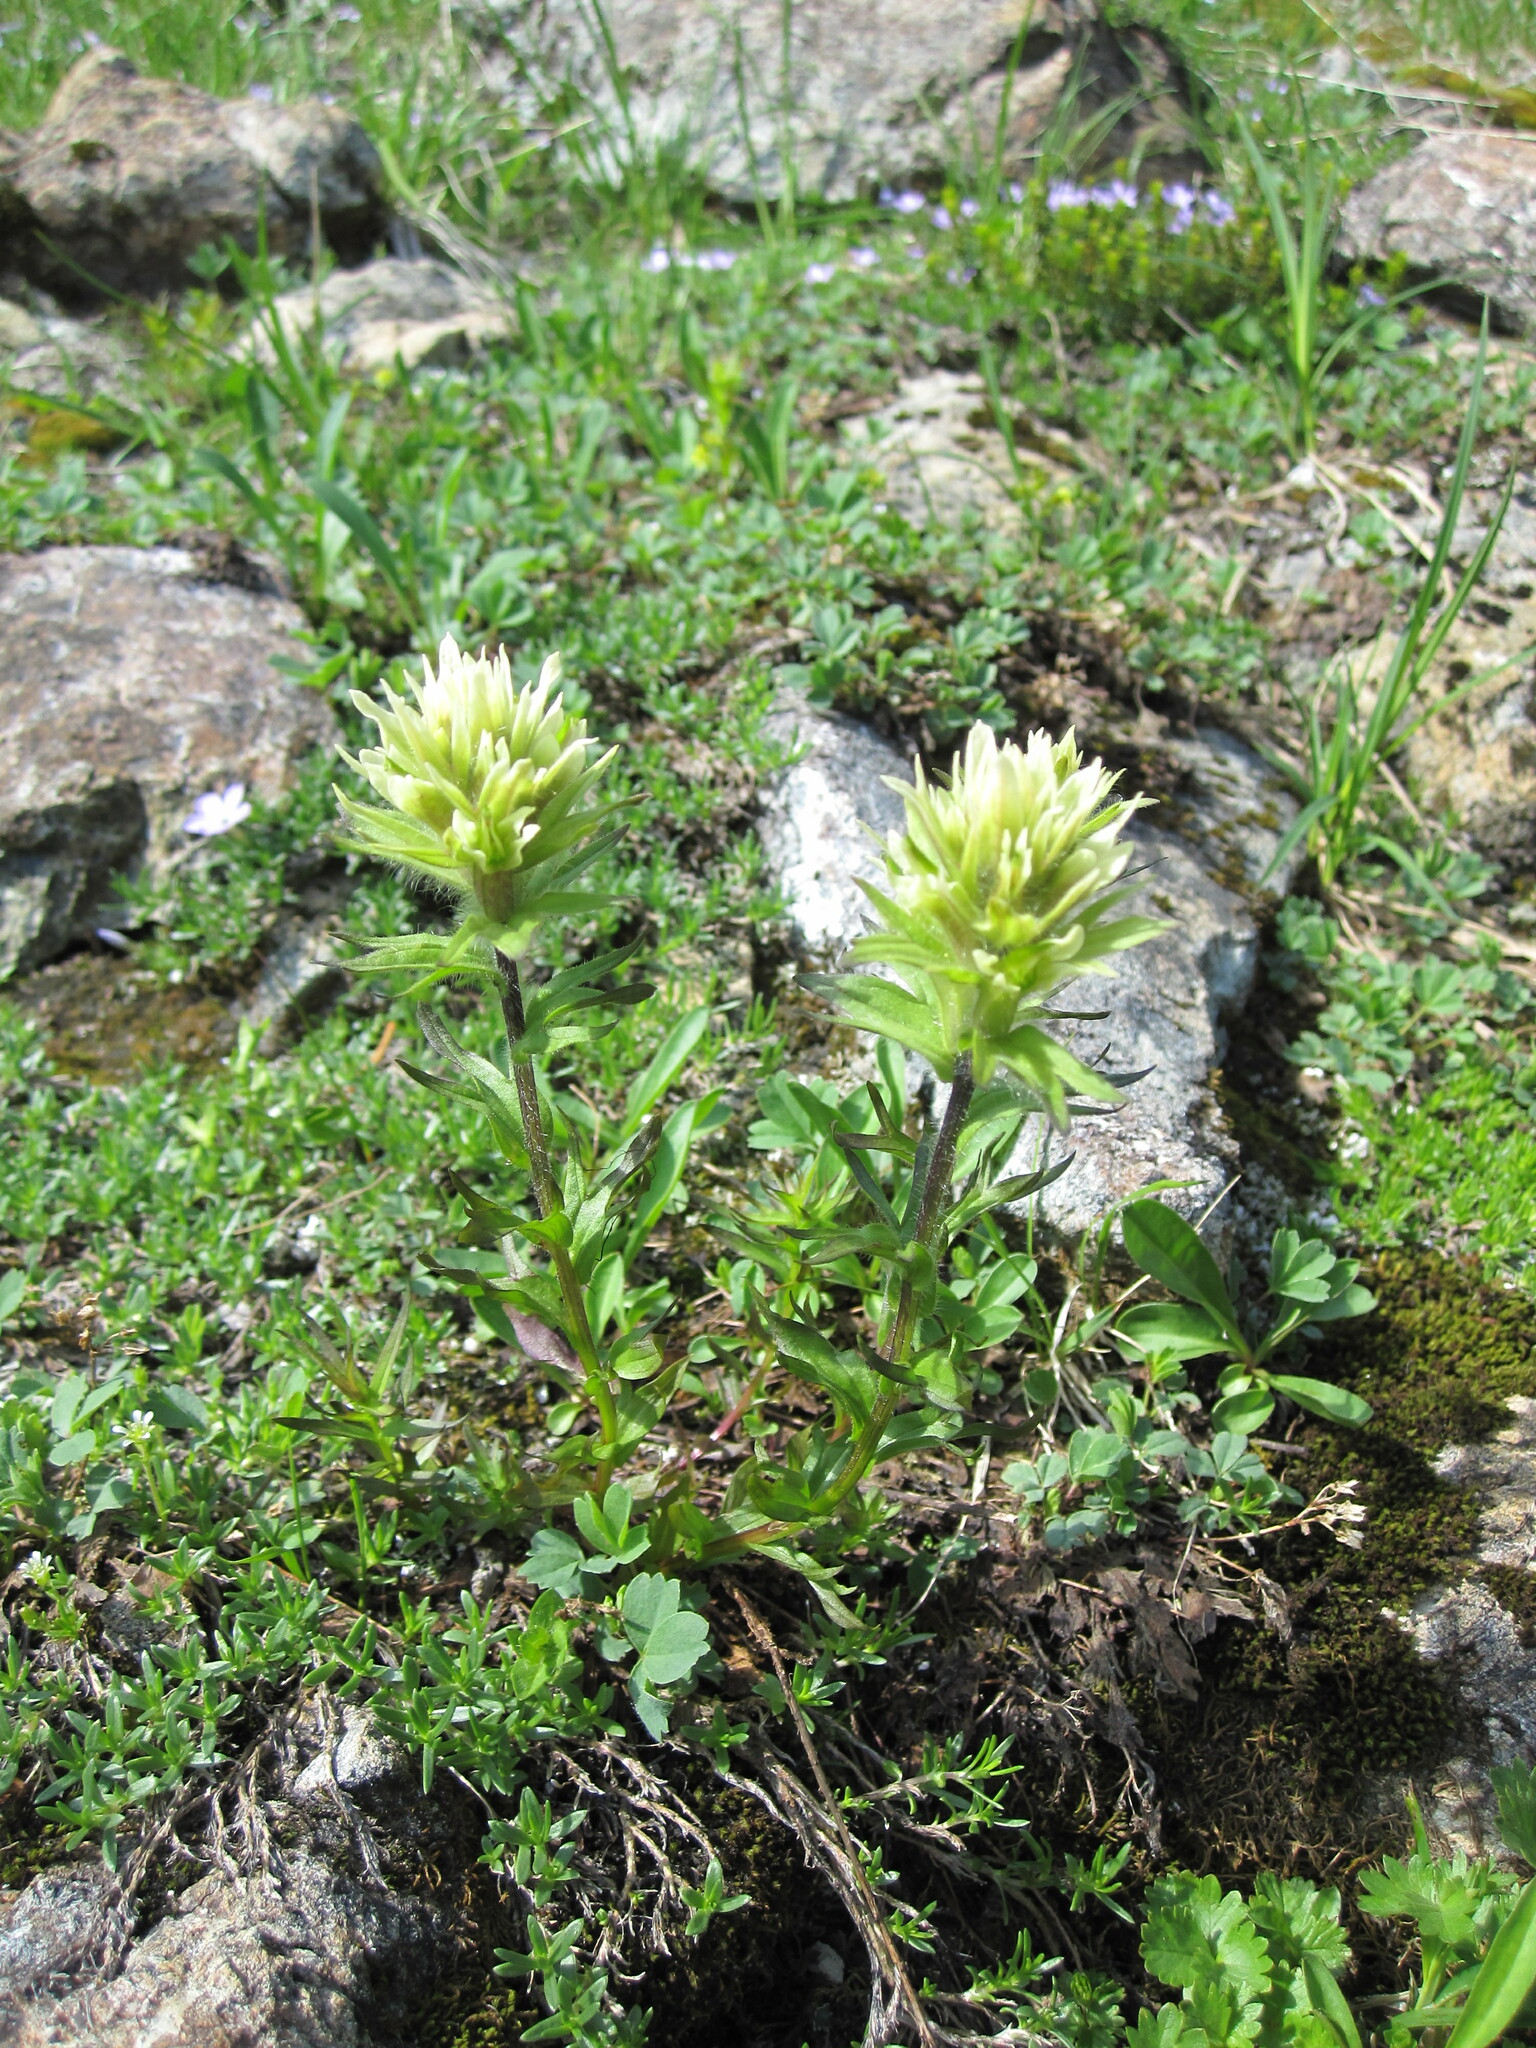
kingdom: Plantae
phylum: Tracheophyta
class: Magnoliopsida
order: Lamiales
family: Orobanchaceae
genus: Castilleja
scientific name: Castilleja parviflora
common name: Mountain paintbrush
